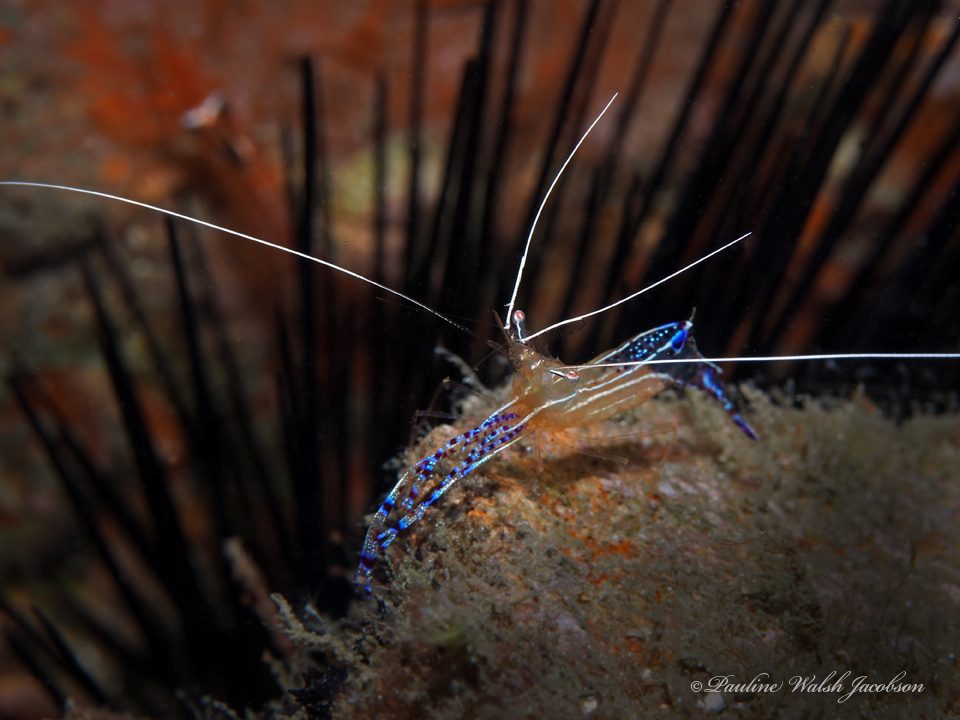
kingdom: Animalia
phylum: Arthropoda
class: Malacostraca
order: Decapoda
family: Palaemonidae
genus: Ancylomenes
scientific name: Ancylomenes pedersoni
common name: Pederson's cleaning shrimp
